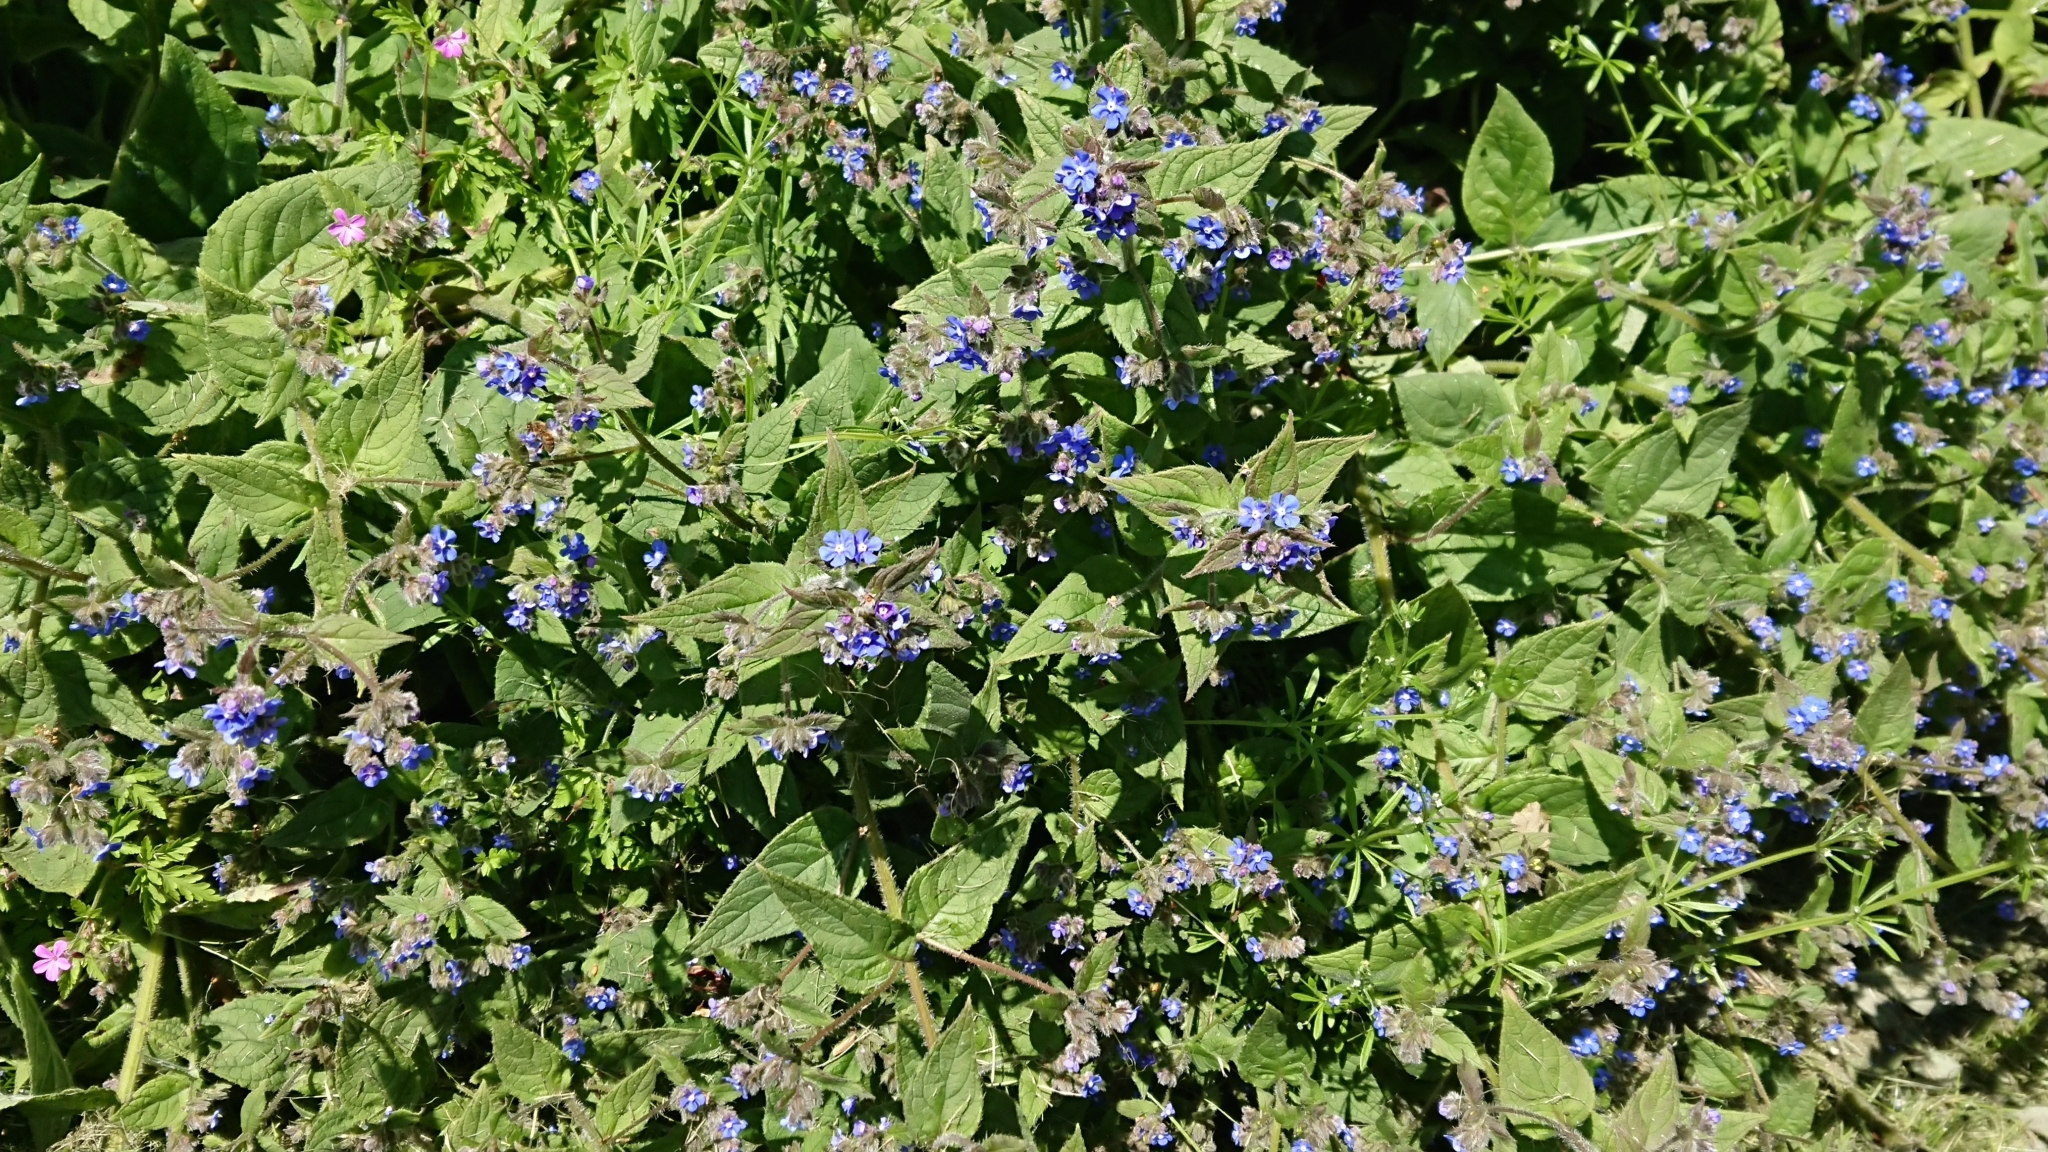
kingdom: Plantae
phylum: Tracheophyta
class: Magnoliopsida
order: Boraginales
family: Boraginaceae
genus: Pentaglottis
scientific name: Pentaglottis sempervirens
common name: Green alkanet
